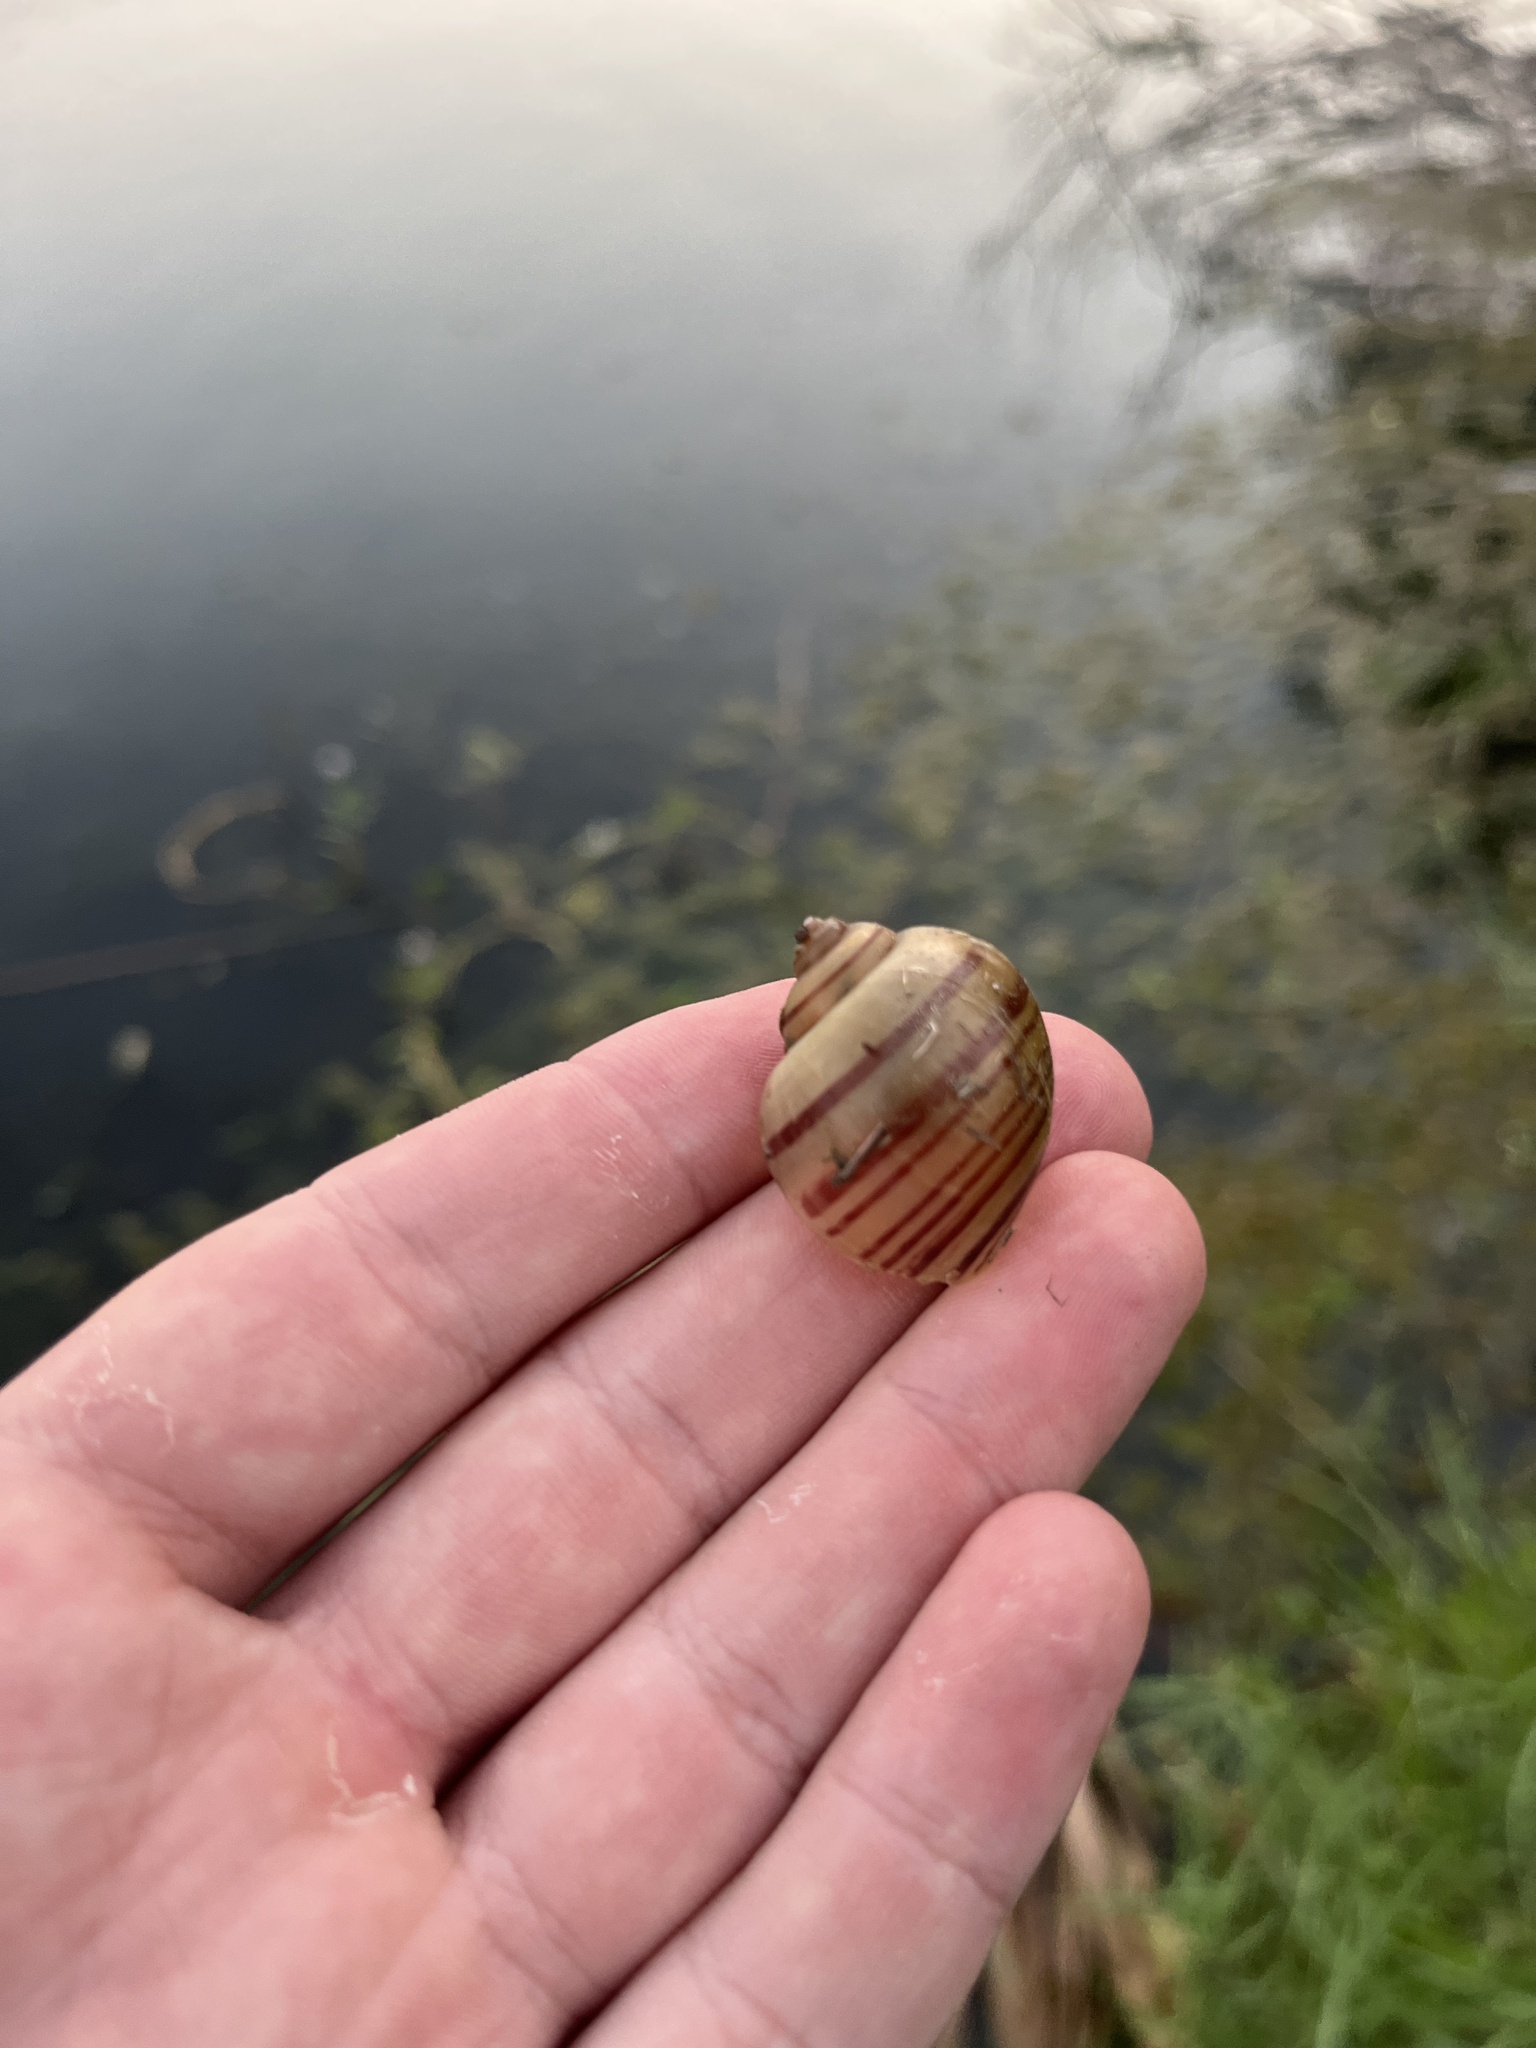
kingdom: Animalia
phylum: Mollusca
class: Gastropoda
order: Architaenioglossa
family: Ampullariidae
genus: Pomacea
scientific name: Pomacea maculata
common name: Giant applesnail
